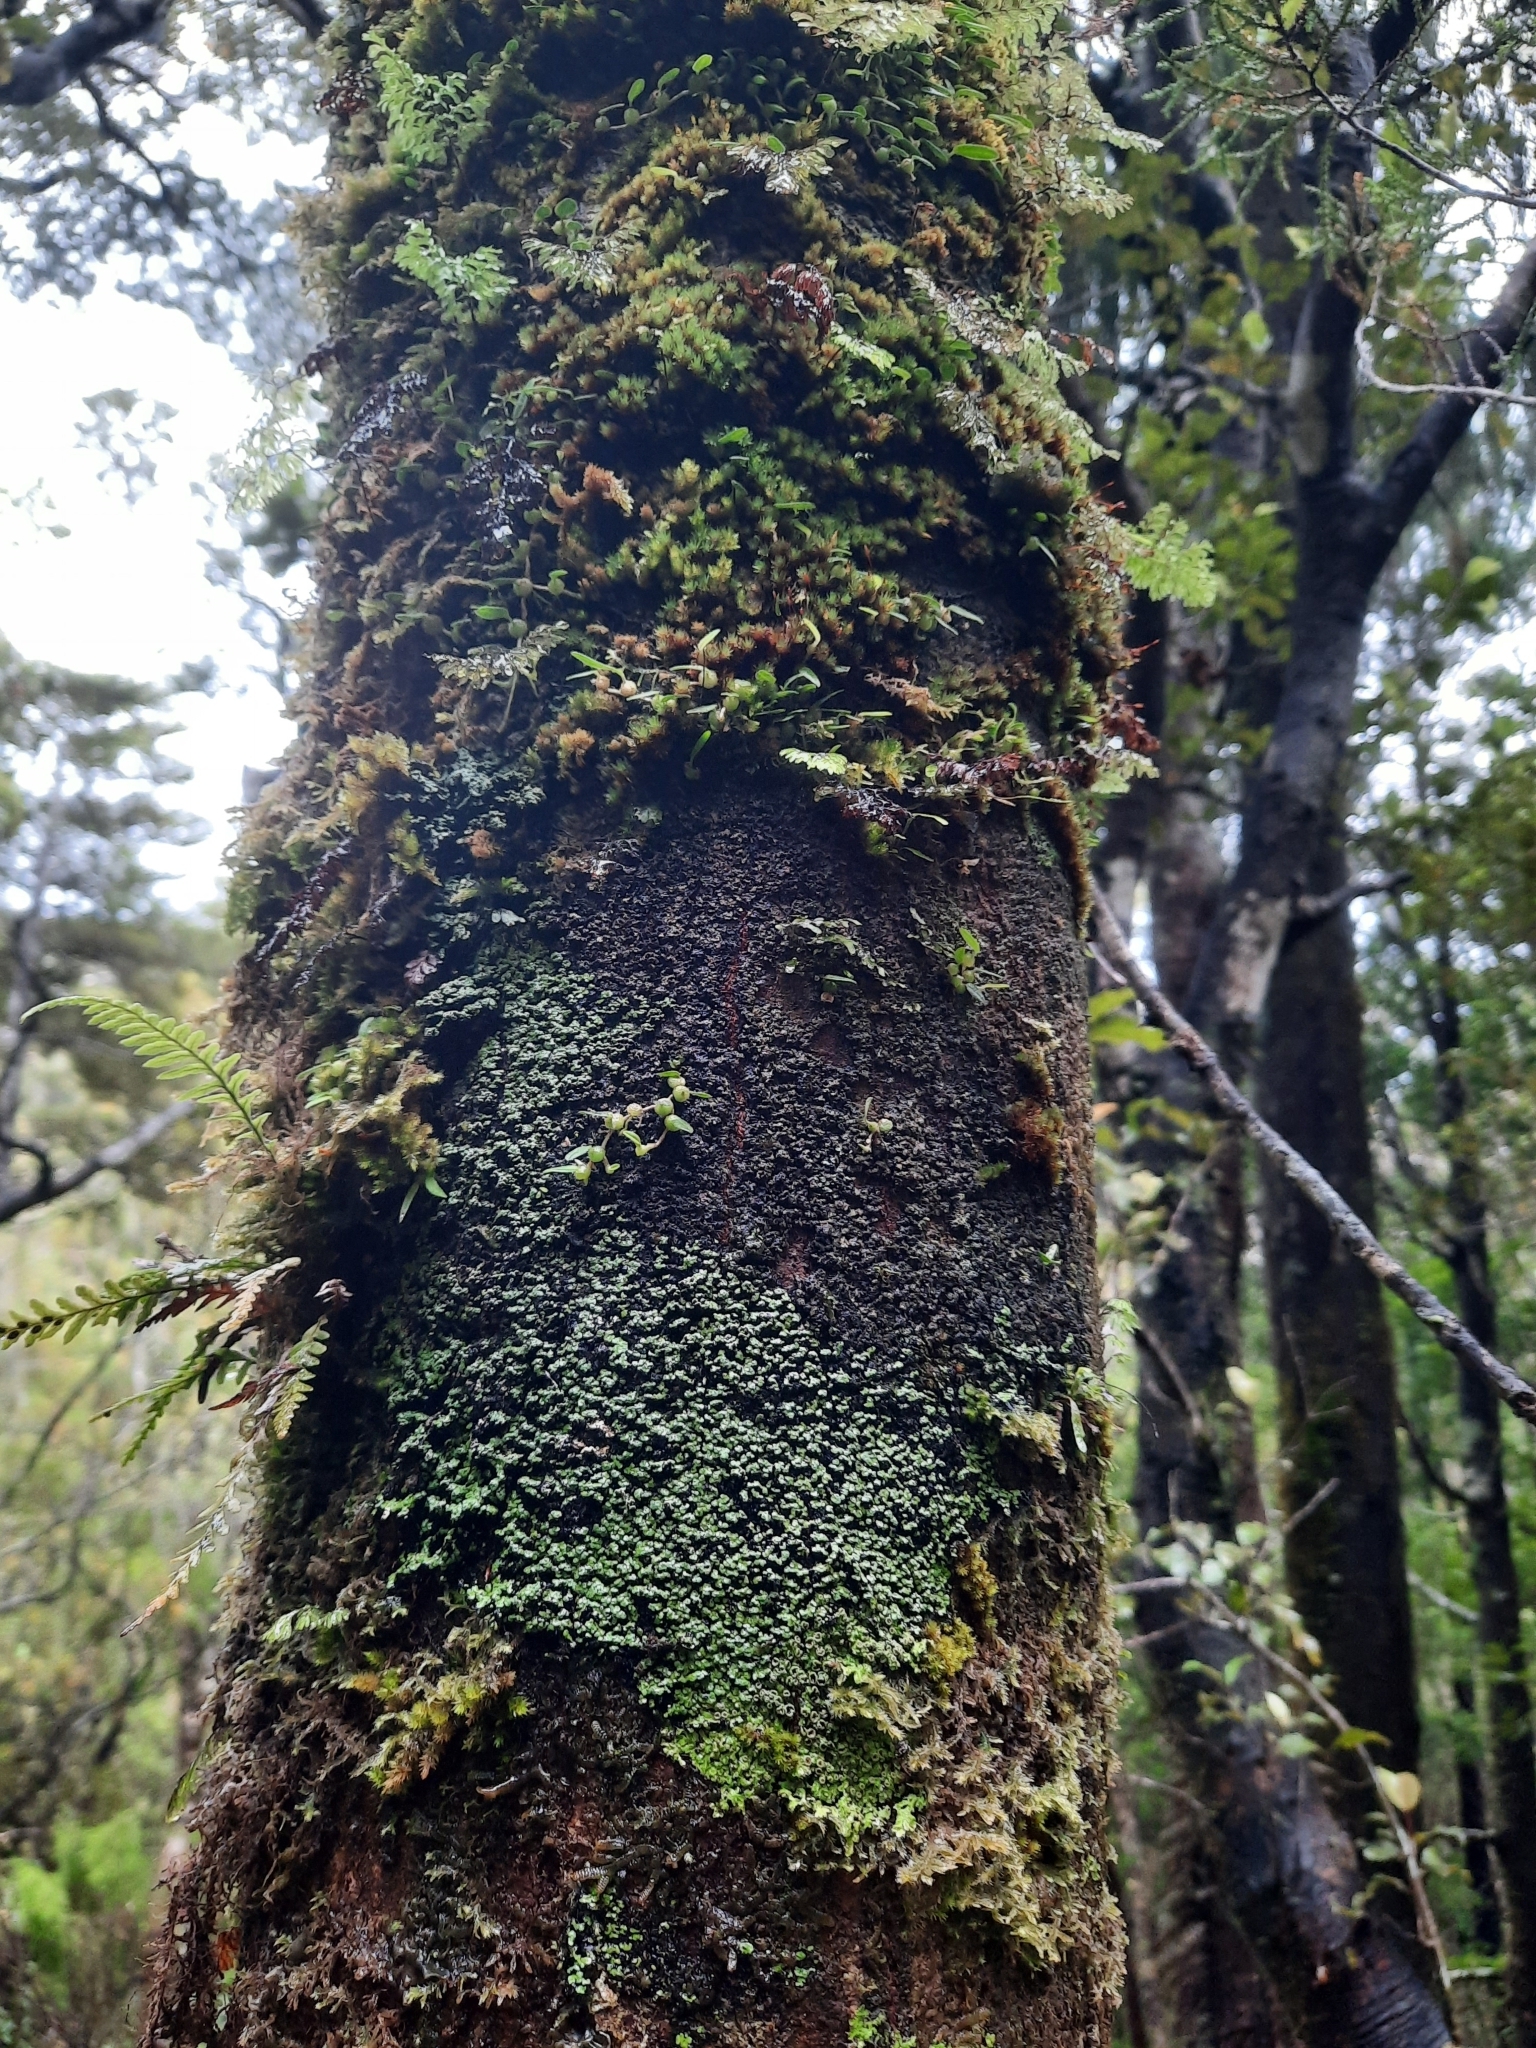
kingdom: Plantae
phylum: Tracheophyta
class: Liliopsida
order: Asparagales
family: Orchidaceae
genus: Bulbophyllum
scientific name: Bulbophyllum pygmaeum
